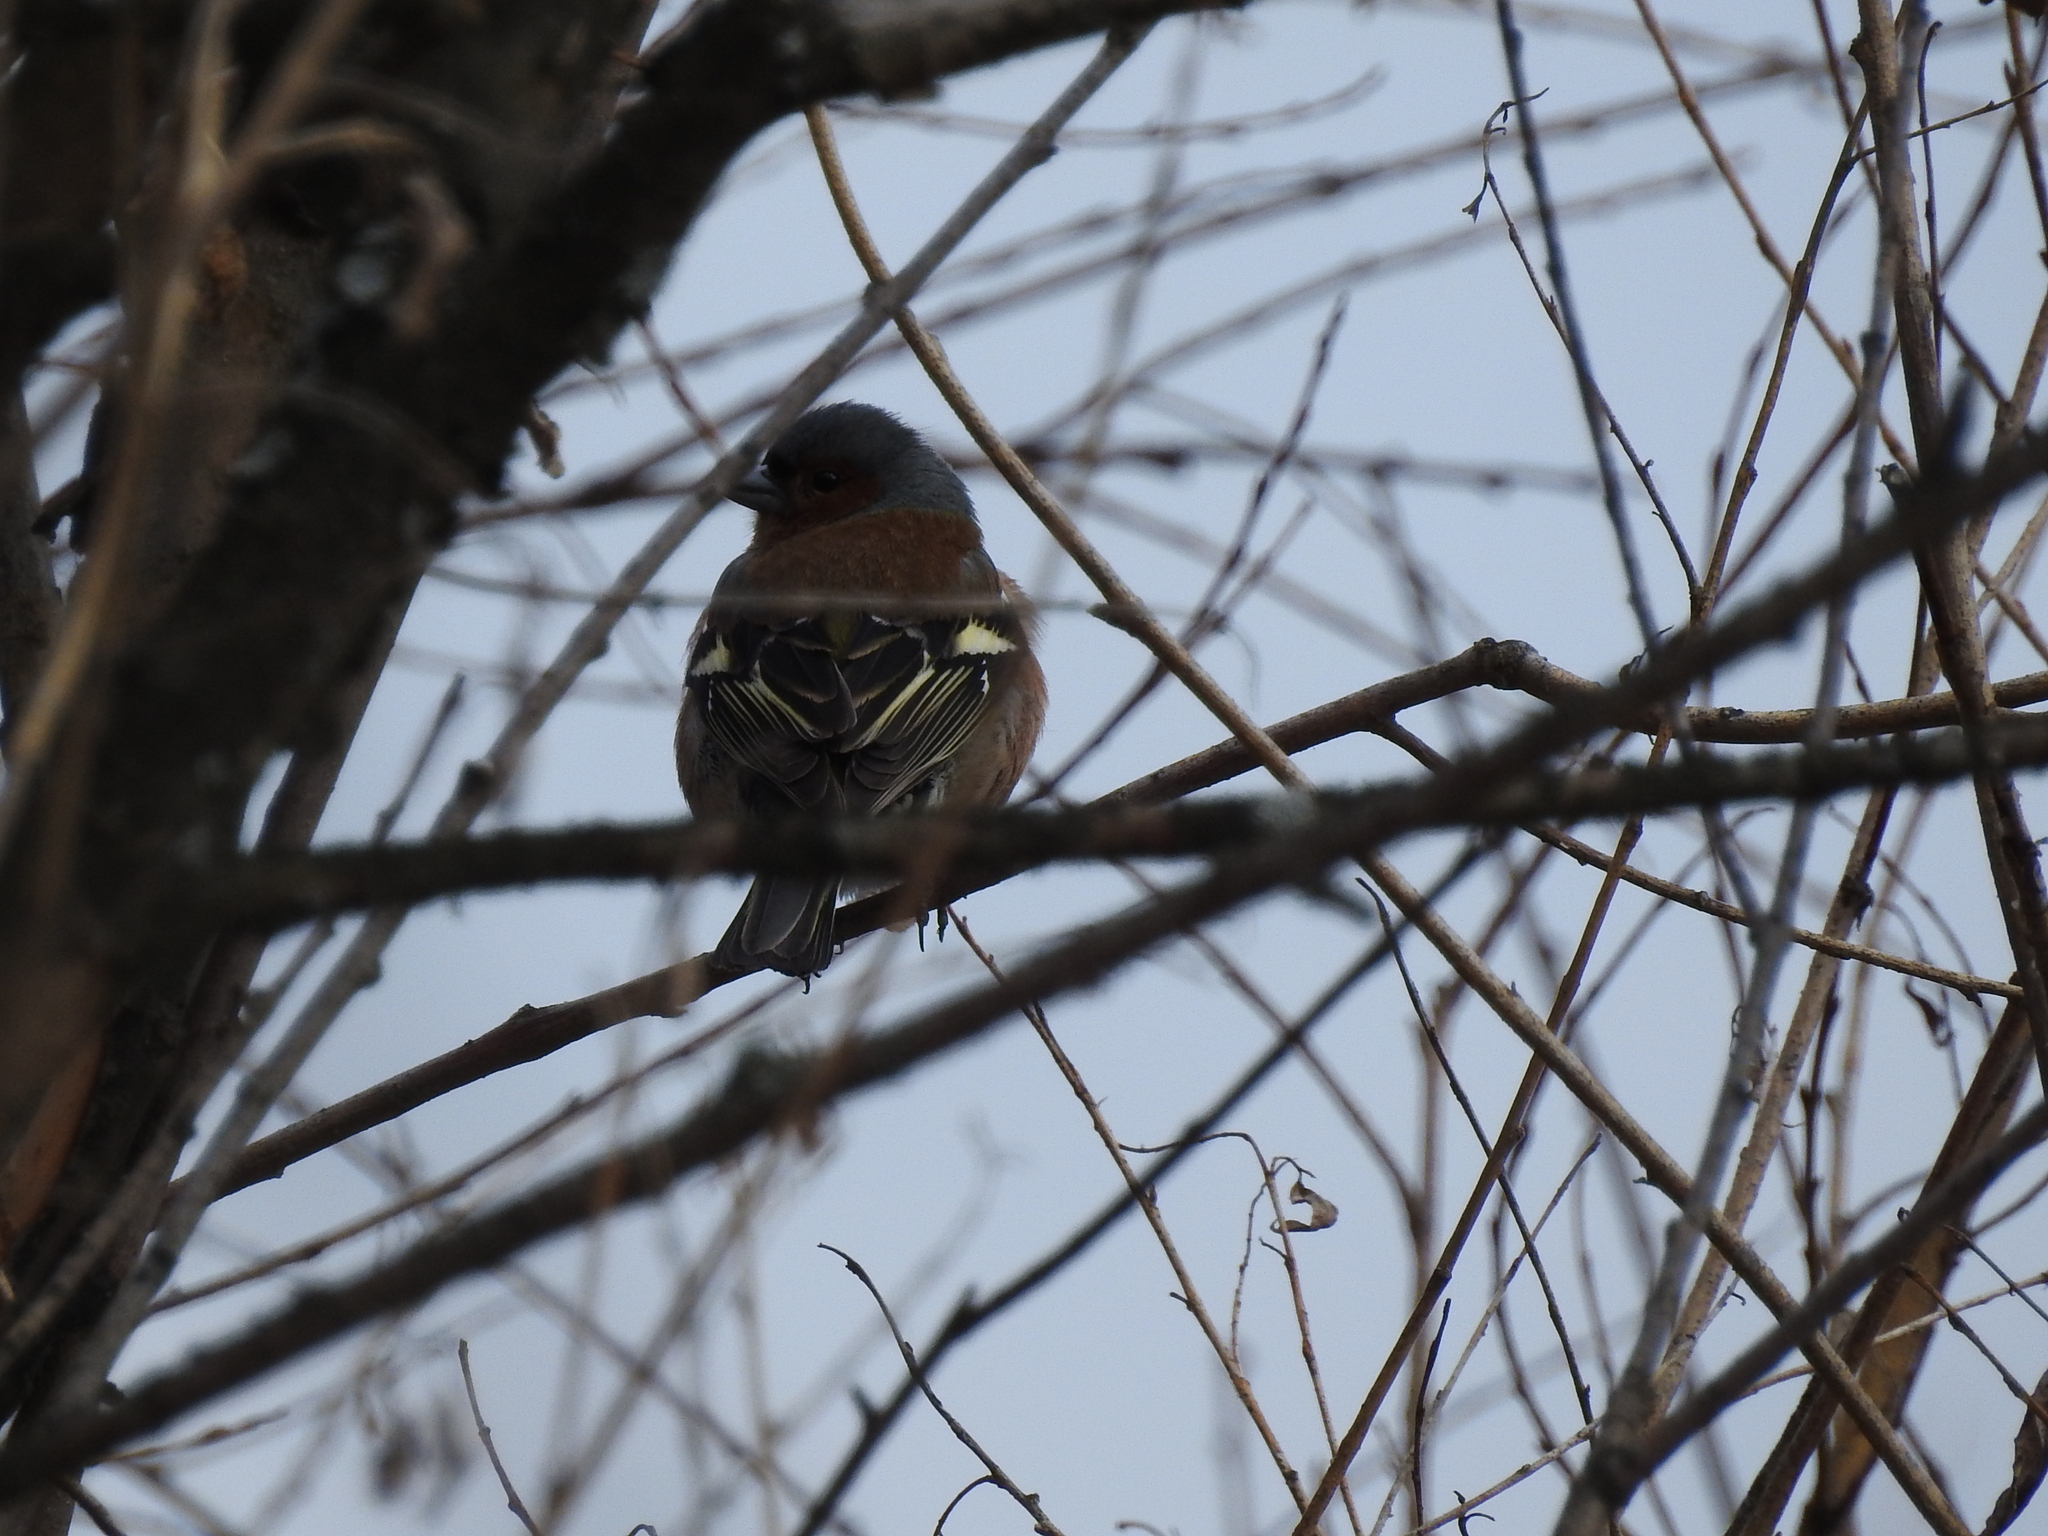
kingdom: Animalia
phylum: Chordata
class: Aves
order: Passeriformes
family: Fringillidae
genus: Fringilla
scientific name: Fringilla coelebs
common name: Common chaffinch
